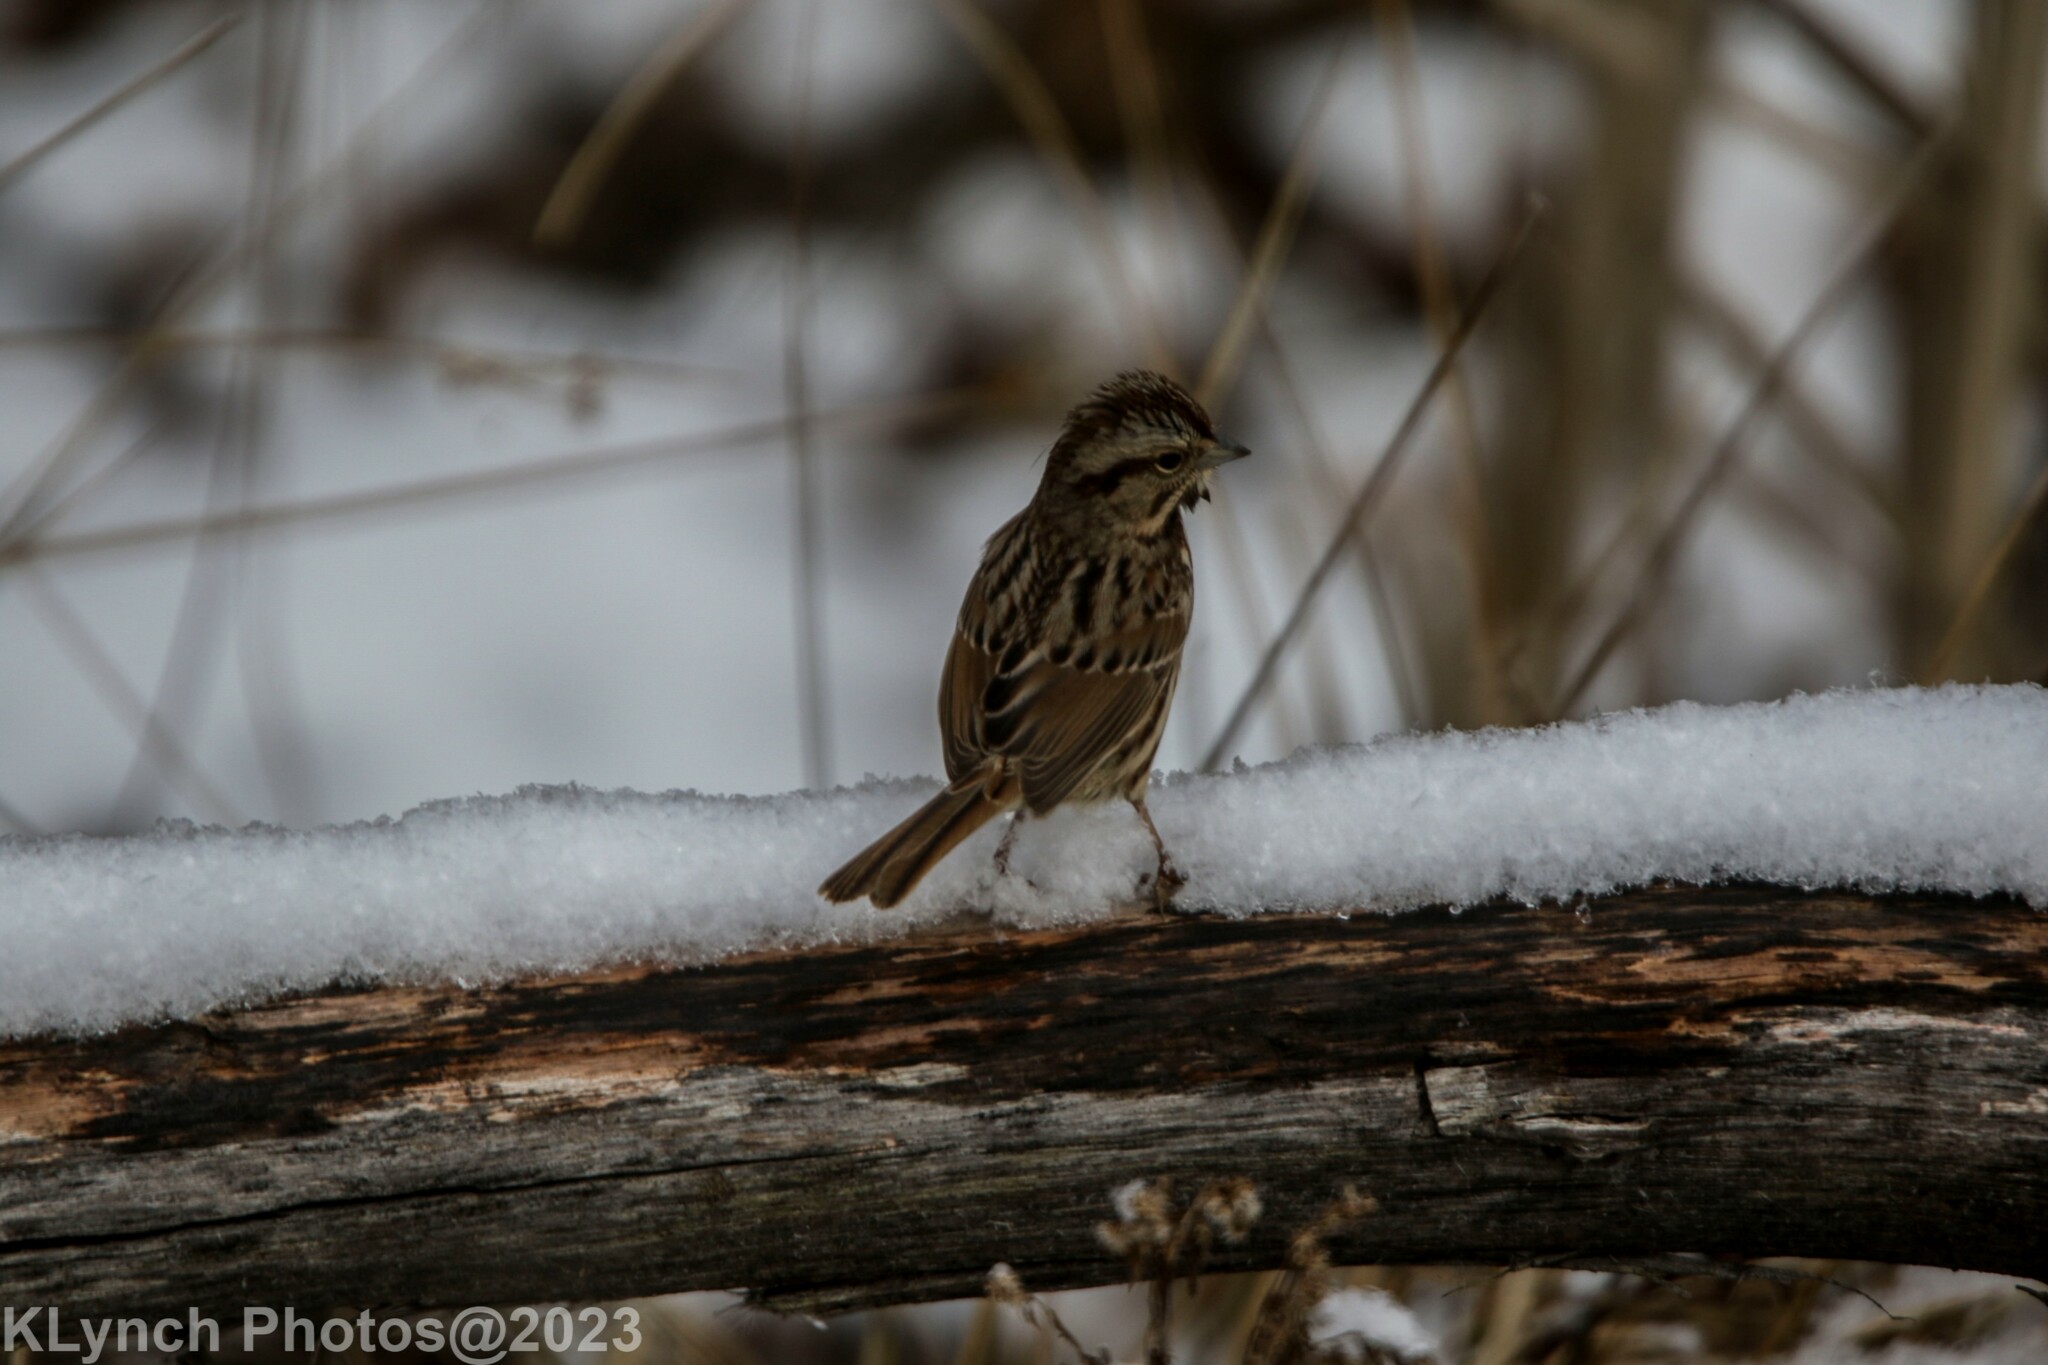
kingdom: Animalia
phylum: Chordata
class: Aves
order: Passeriformes
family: Passerellidae
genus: Melospiza
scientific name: Melospiza melodia
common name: Song sparrow
